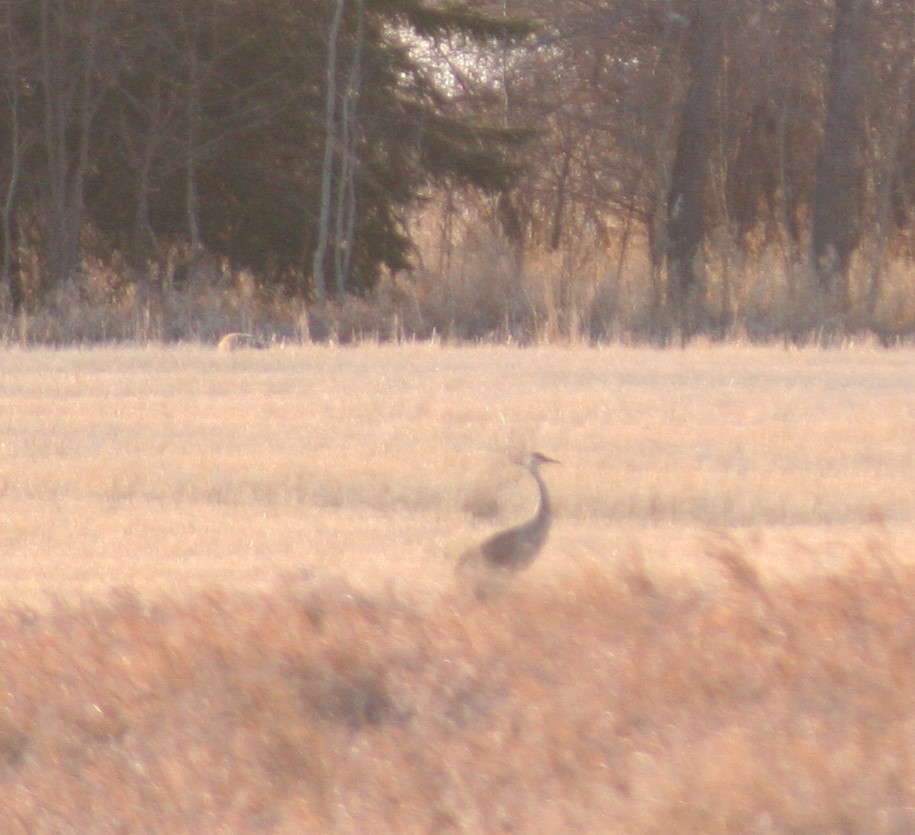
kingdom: Animalia
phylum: Chordata
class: Aves
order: Gruiformes
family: Gruidae
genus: Grus
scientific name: Grus canadensis
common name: Sandhill crane
